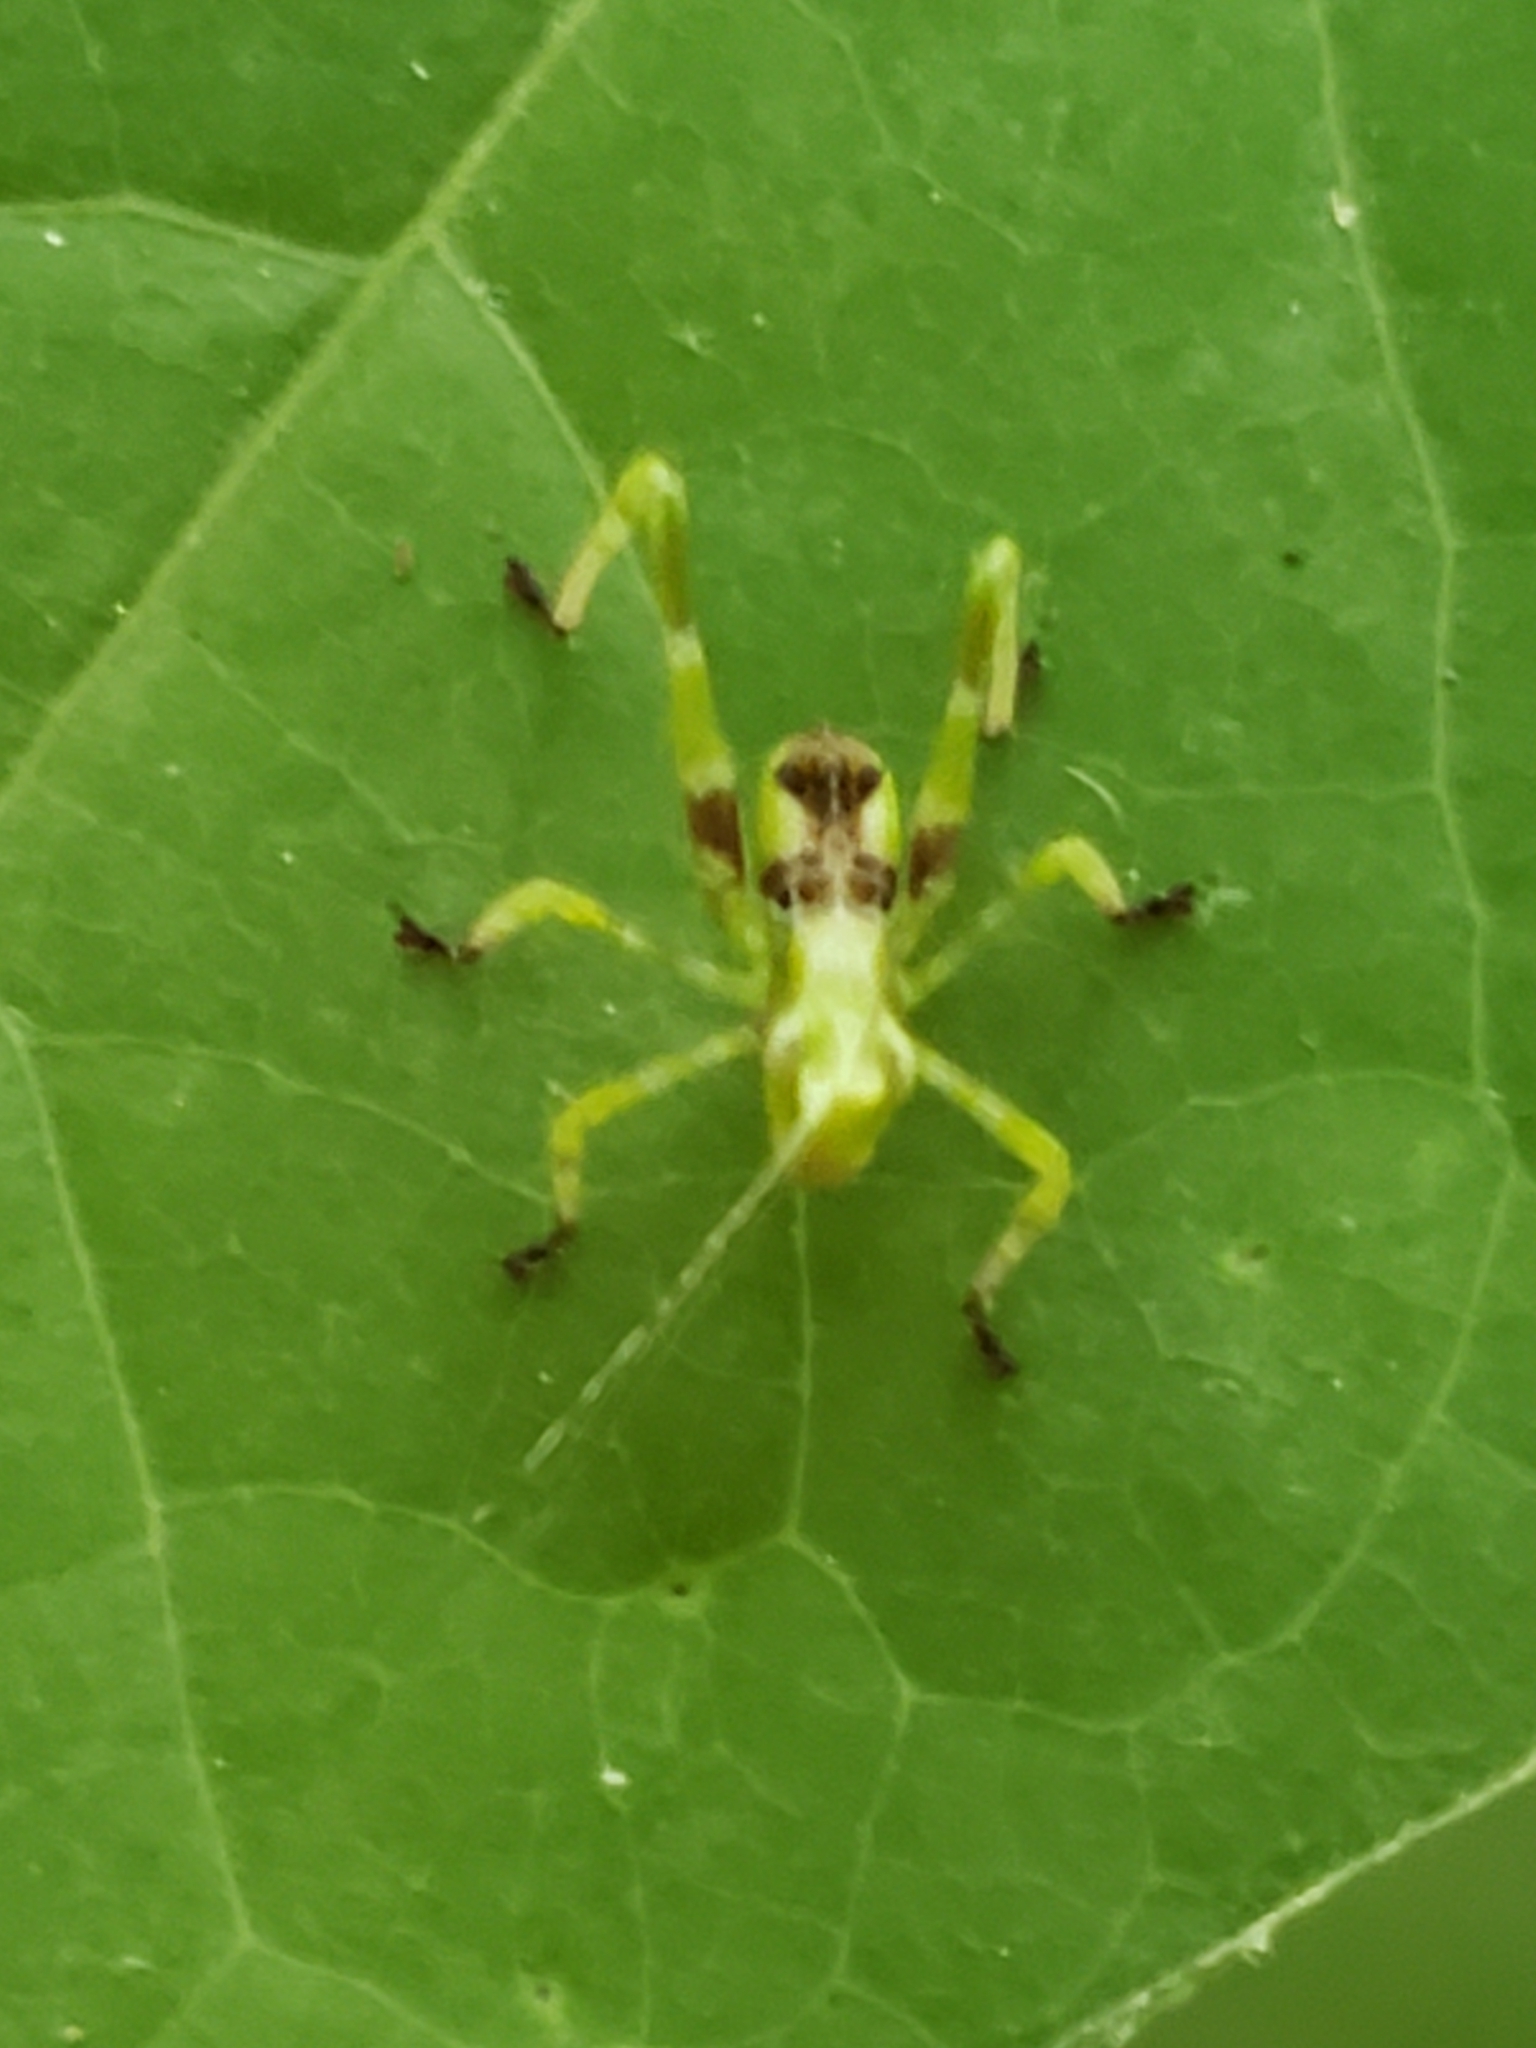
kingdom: Animalia
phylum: Arthropoda
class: Insecta
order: Orthoptera
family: Tettigoniidae
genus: Montezumina
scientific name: Montezumina modesta
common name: Modest katydid
